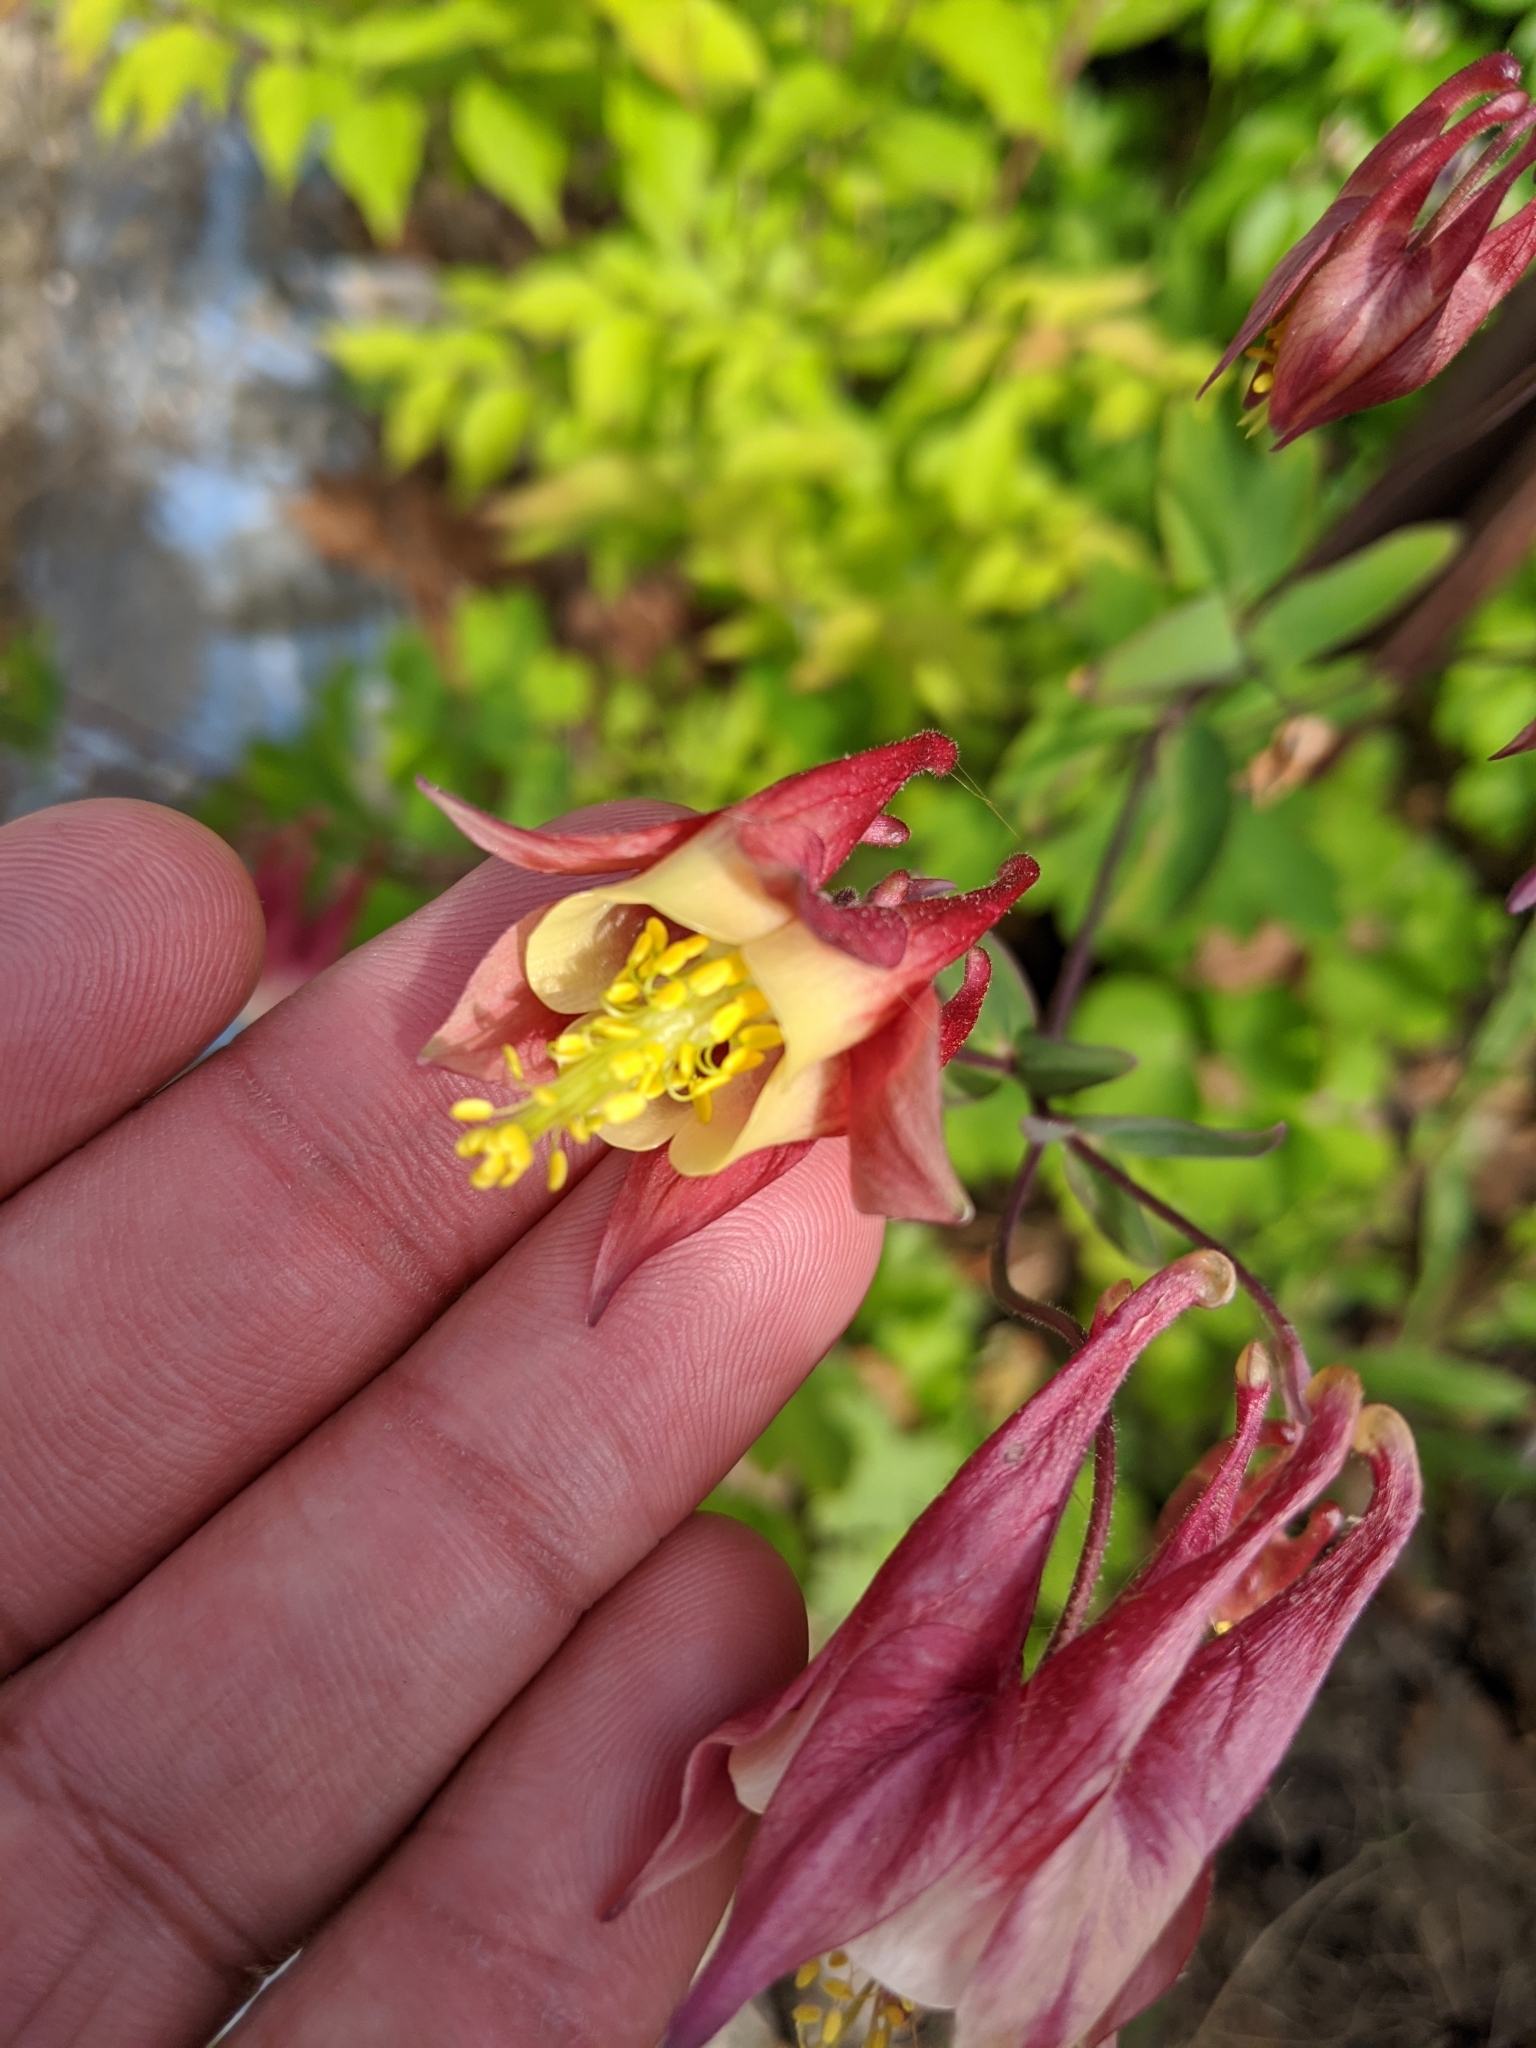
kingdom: Plantae
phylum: Tracheophyta
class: Magnoliopsida
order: Ranunculales
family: Ranunculaceae
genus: Aquilegia
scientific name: Aquilegia canadensis
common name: American columbine
